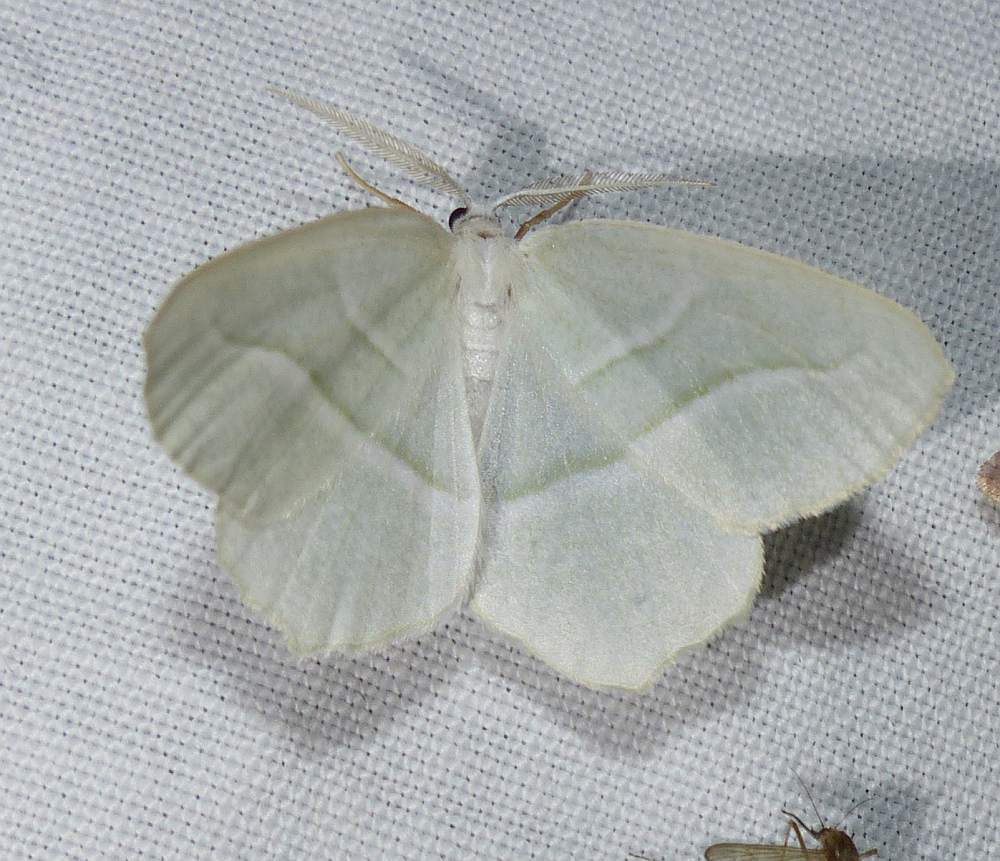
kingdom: Animalia
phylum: Arthropoda
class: Insecta
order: Lepidoptera
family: Geometridae
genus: Campaea
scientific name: Campaea perlata
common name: Fringed looper
